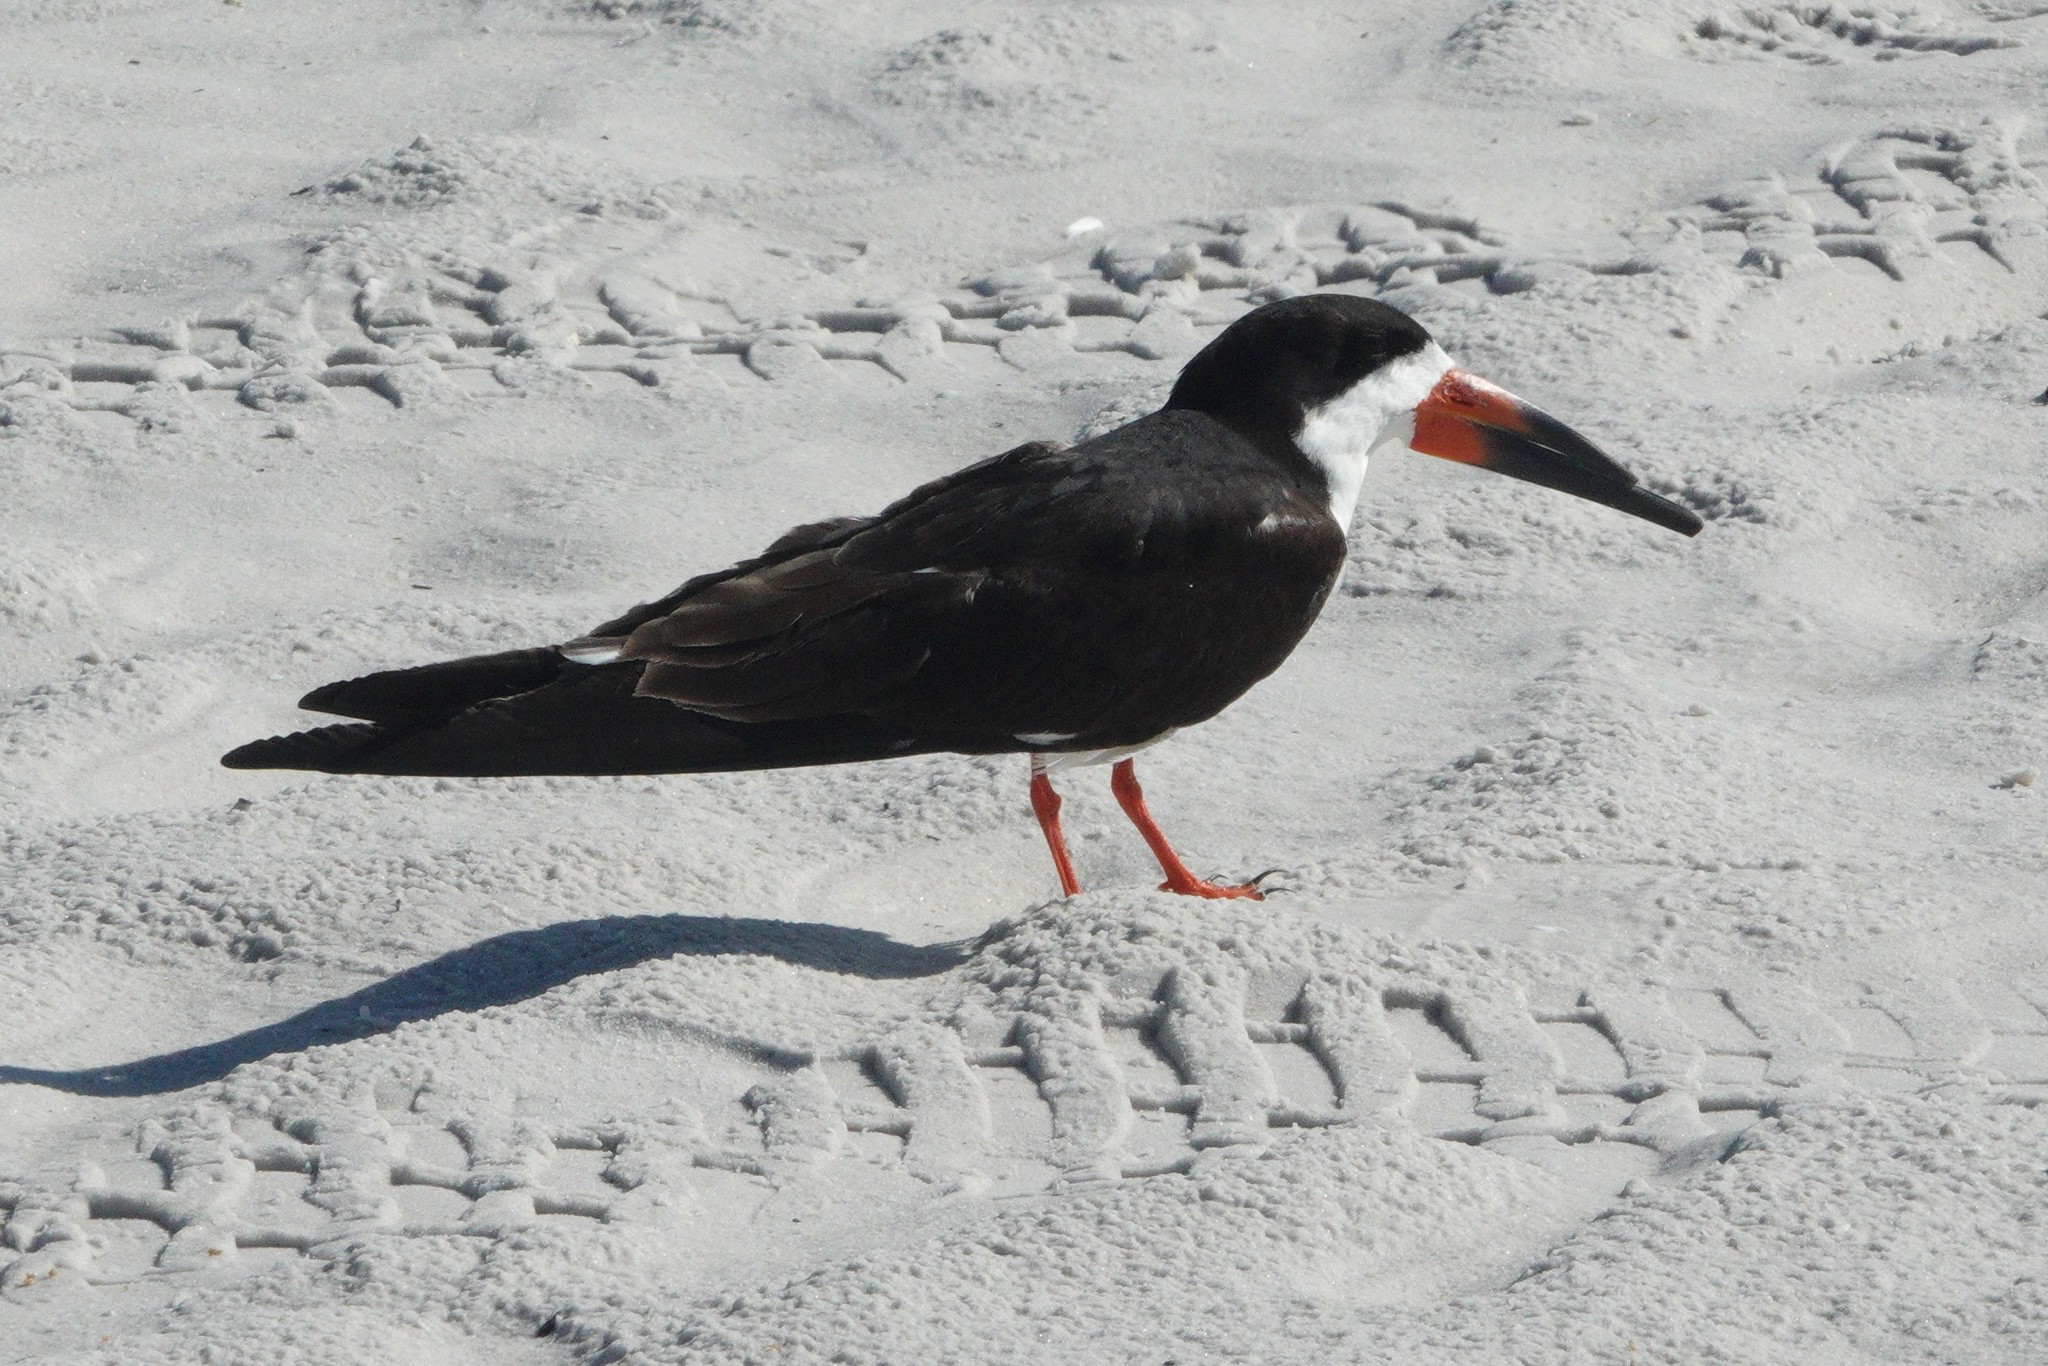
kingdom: Animalia
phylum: Chordata
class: Aves
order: Charadriiformes
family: Laridae
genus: Rynchops
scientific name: Rynchops niger
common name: Black skimmer
